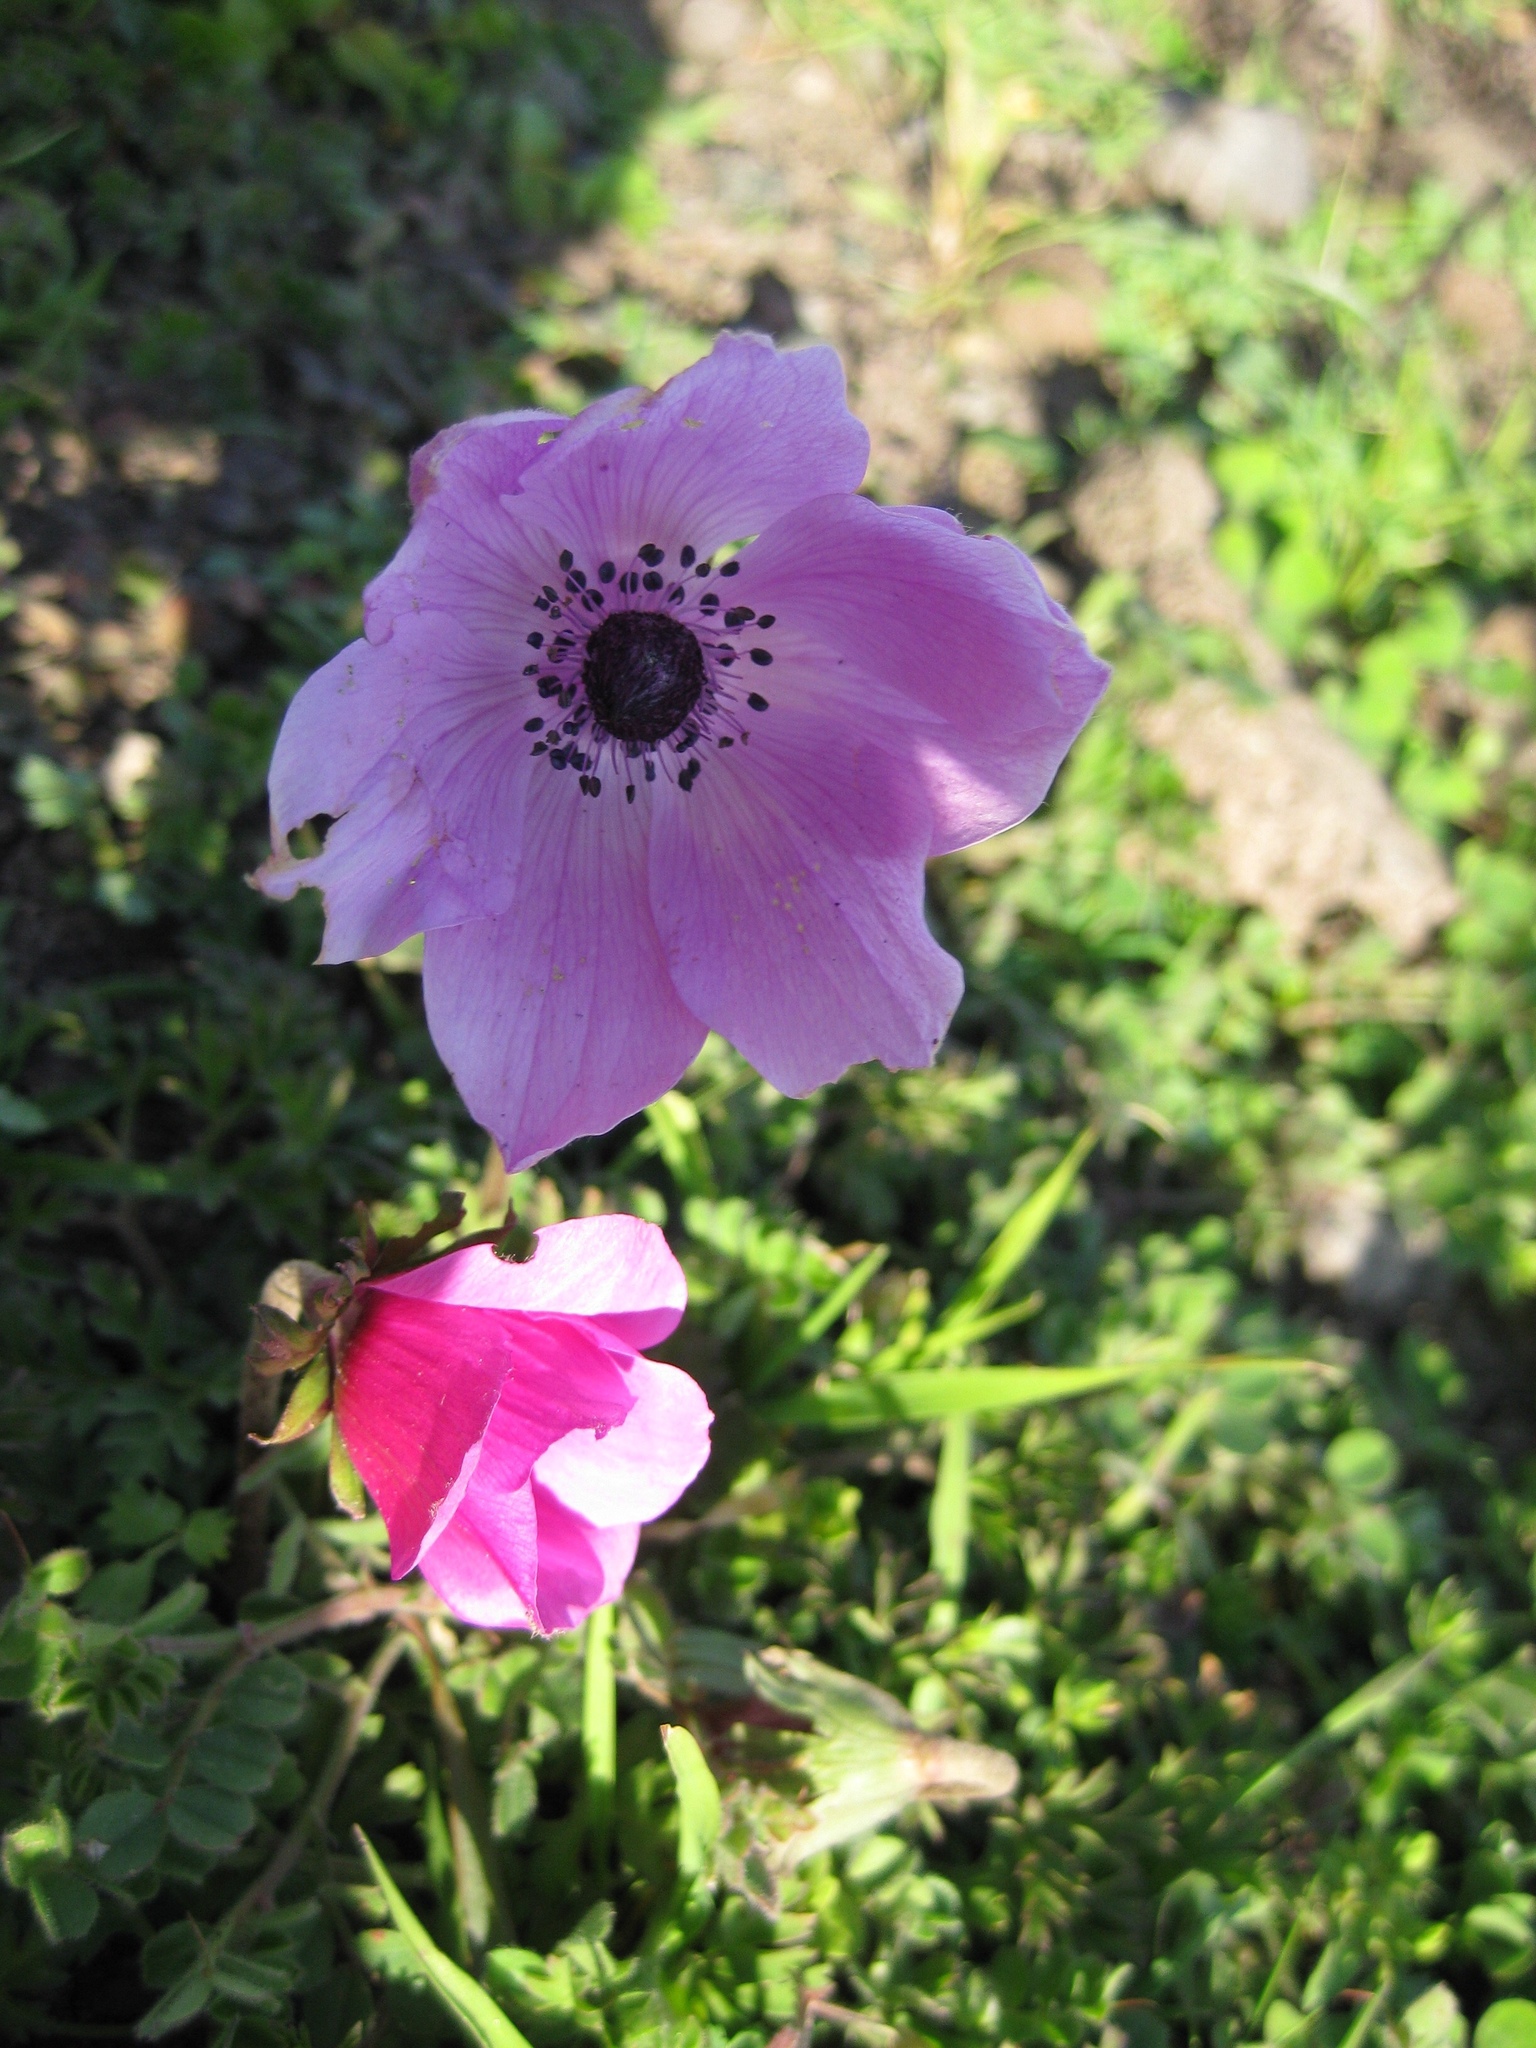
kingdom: Plantae
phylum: Tracheophyta
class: Magnoliopsida
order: Ranunculales
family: Ranunculaceae
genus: Anemone
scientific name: Anemone coronaria
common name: Poppy anemone
